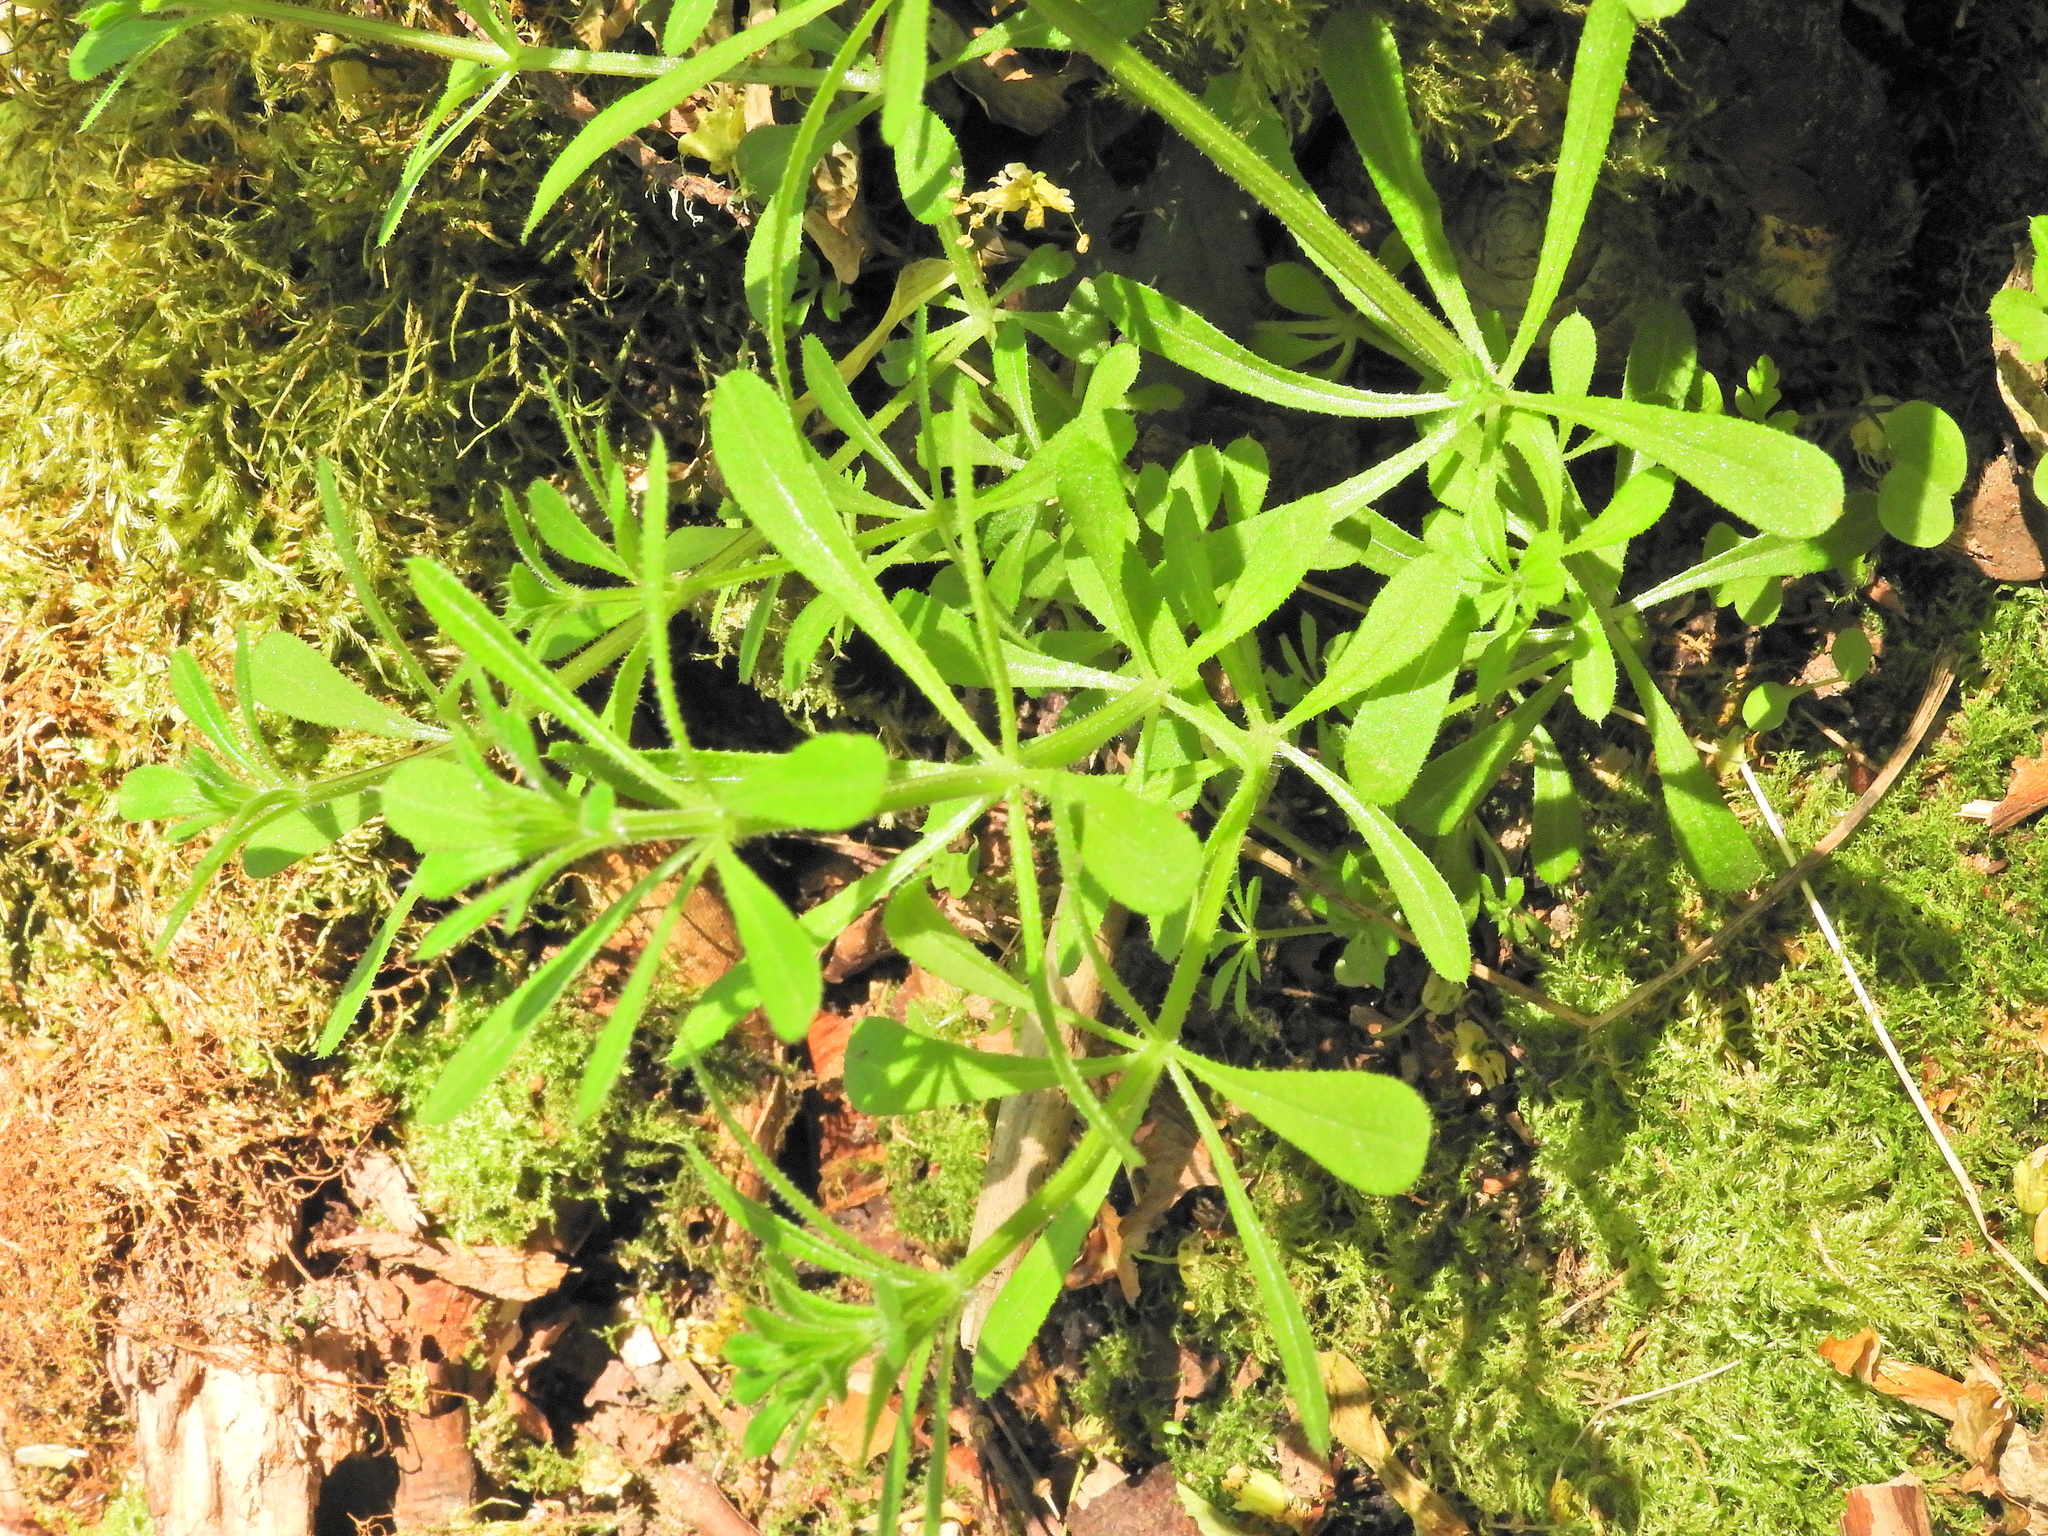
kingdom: Plantae
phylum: Tracheophyta
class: Magnoliopsida
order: Gentianales
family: Rubiaceae
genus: Galium
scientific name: Galium aparine
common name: Cleavers
